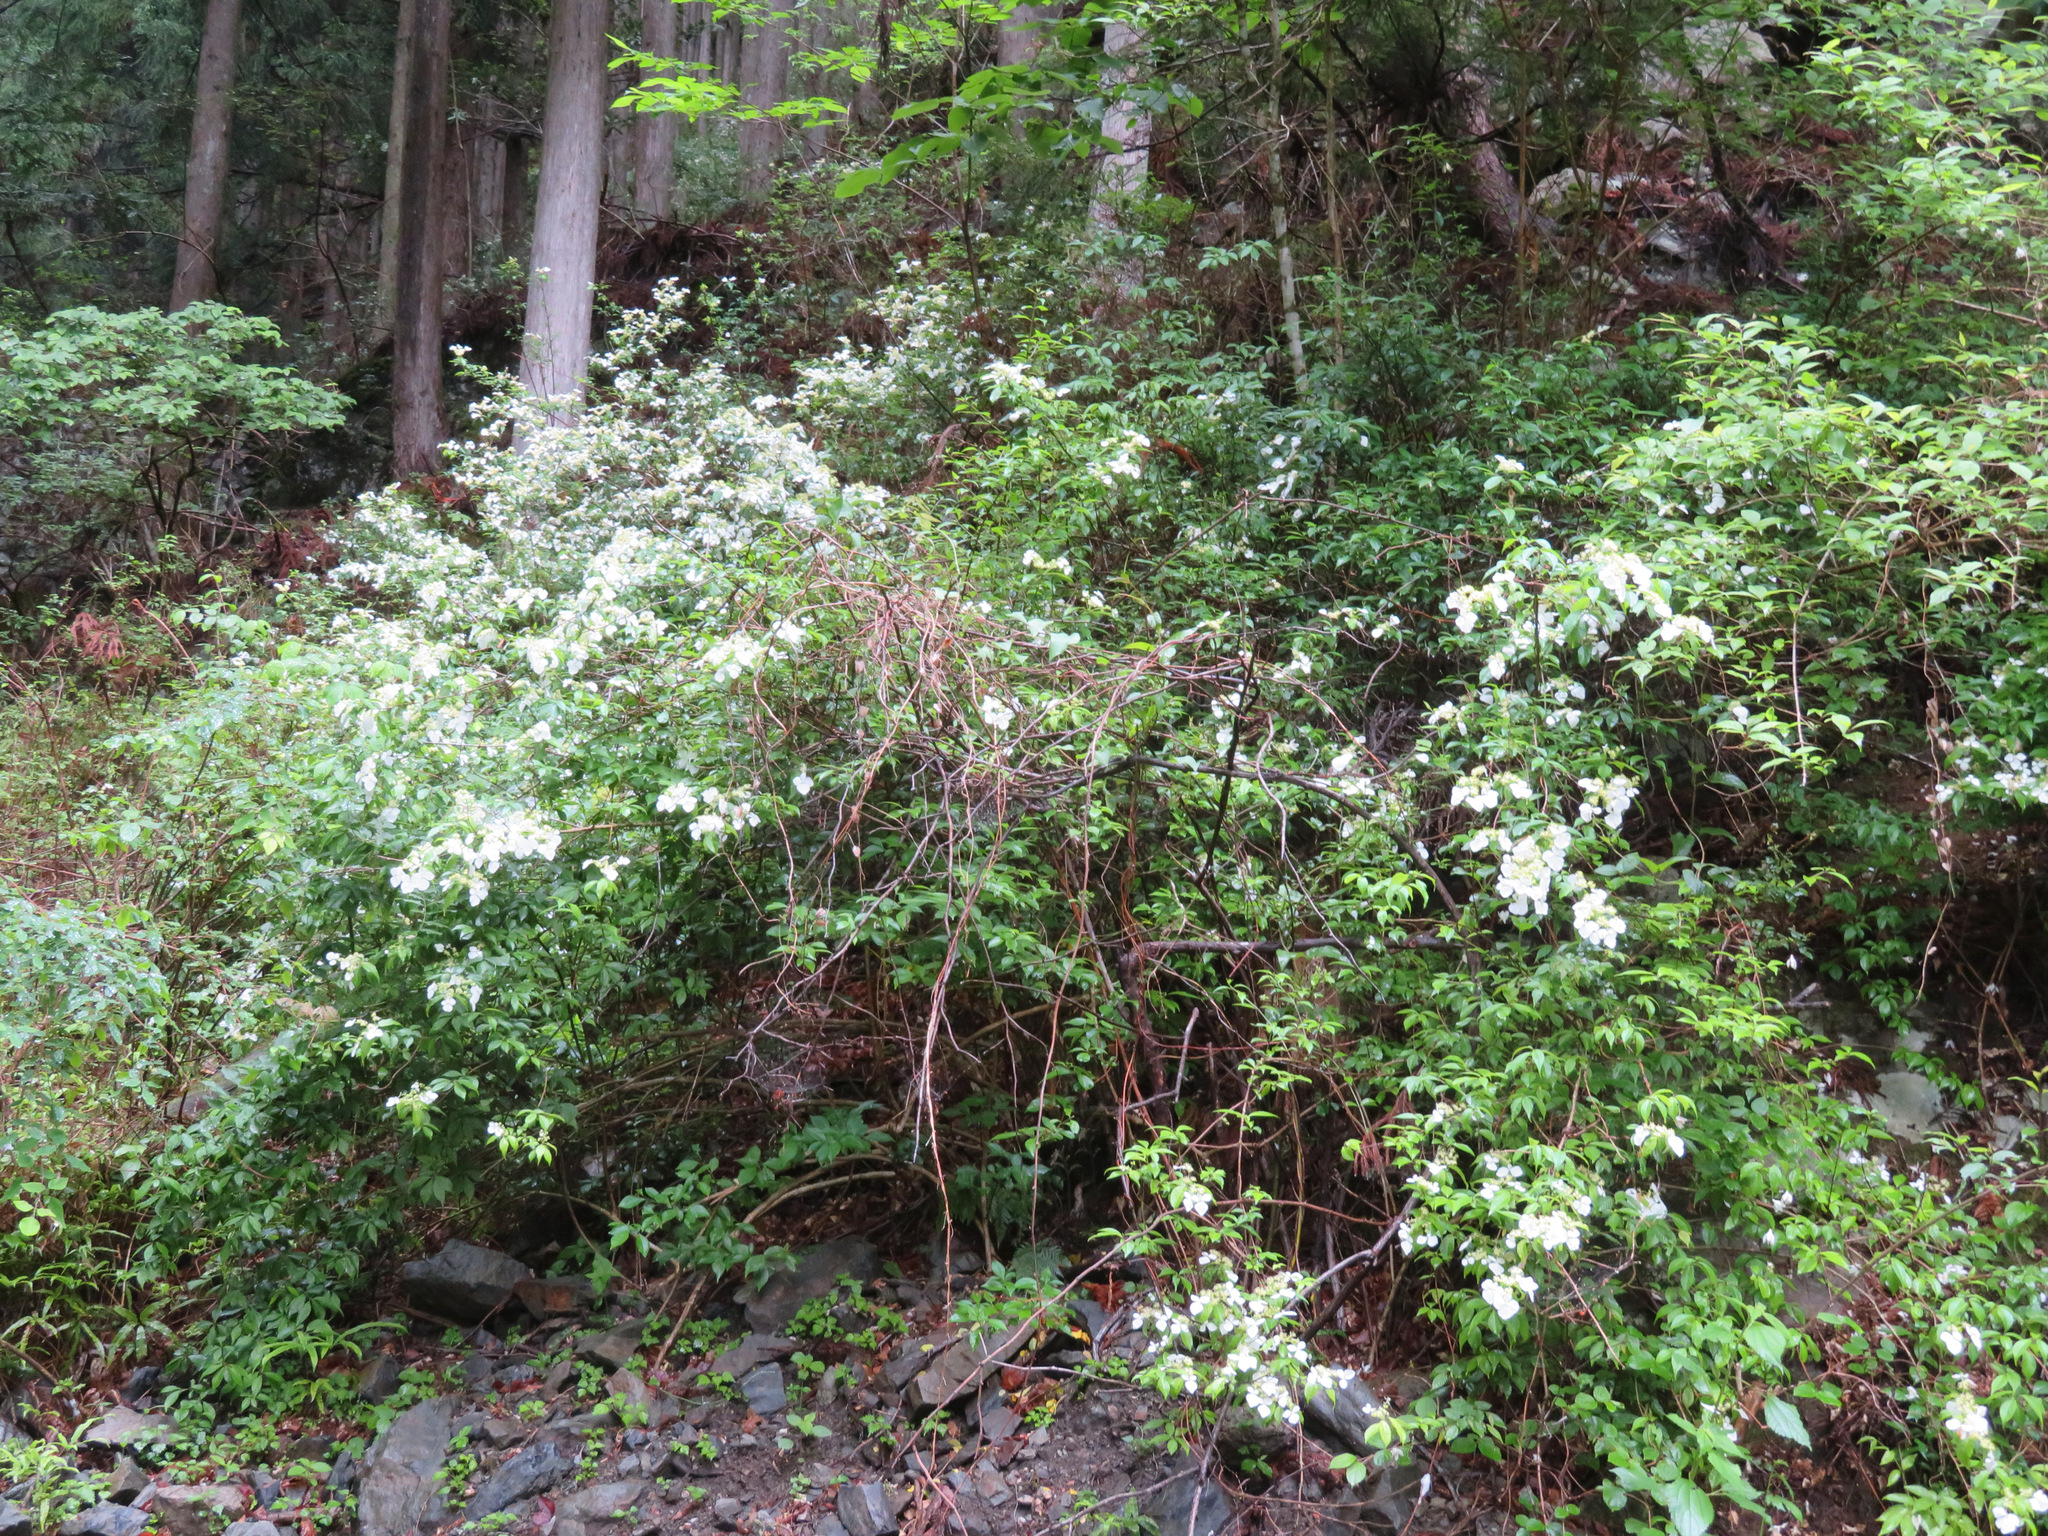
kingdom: Plantae
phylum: Tracheophyta
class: Magnoliopsida
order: Cornales
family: Hydrangeaceae
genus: Hydrangea
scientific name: Hydrangea scandens
